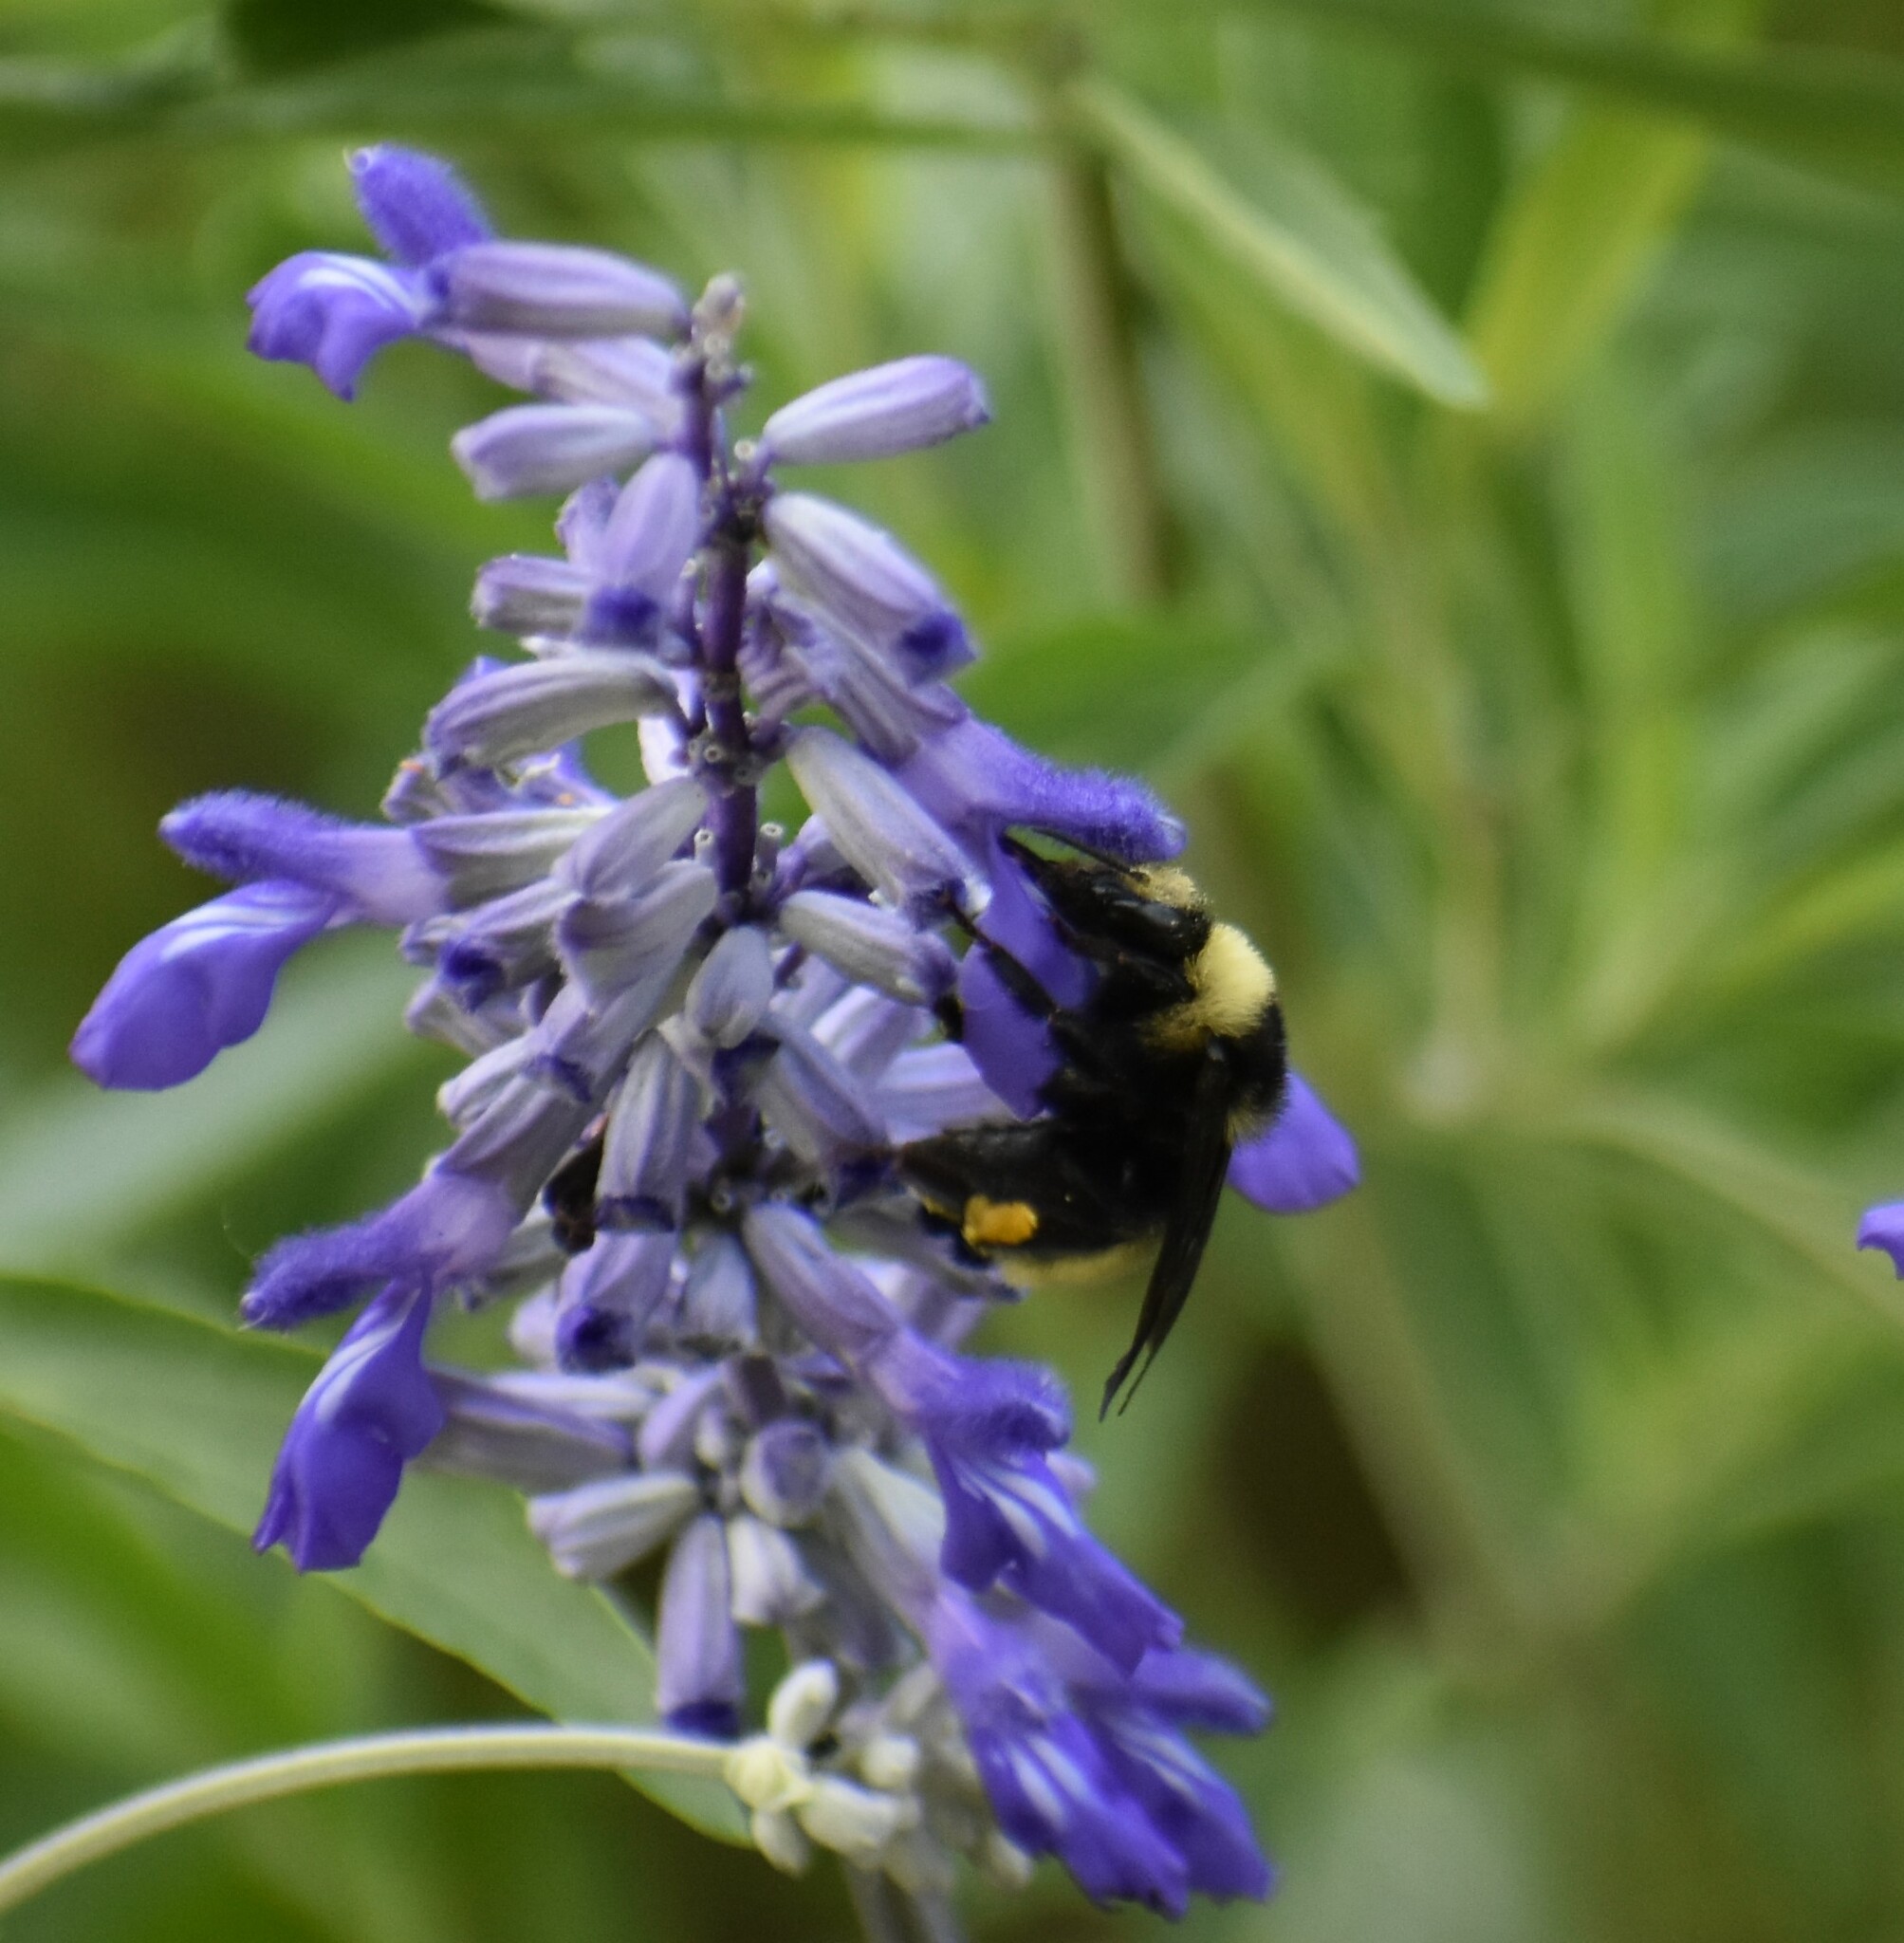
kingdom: Animalia
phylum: Arthropoda
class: Insecta
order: Hymenoptera
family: Apidae
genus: Bombus
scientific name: Bombus pensylvanicus
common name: Bumble bee
